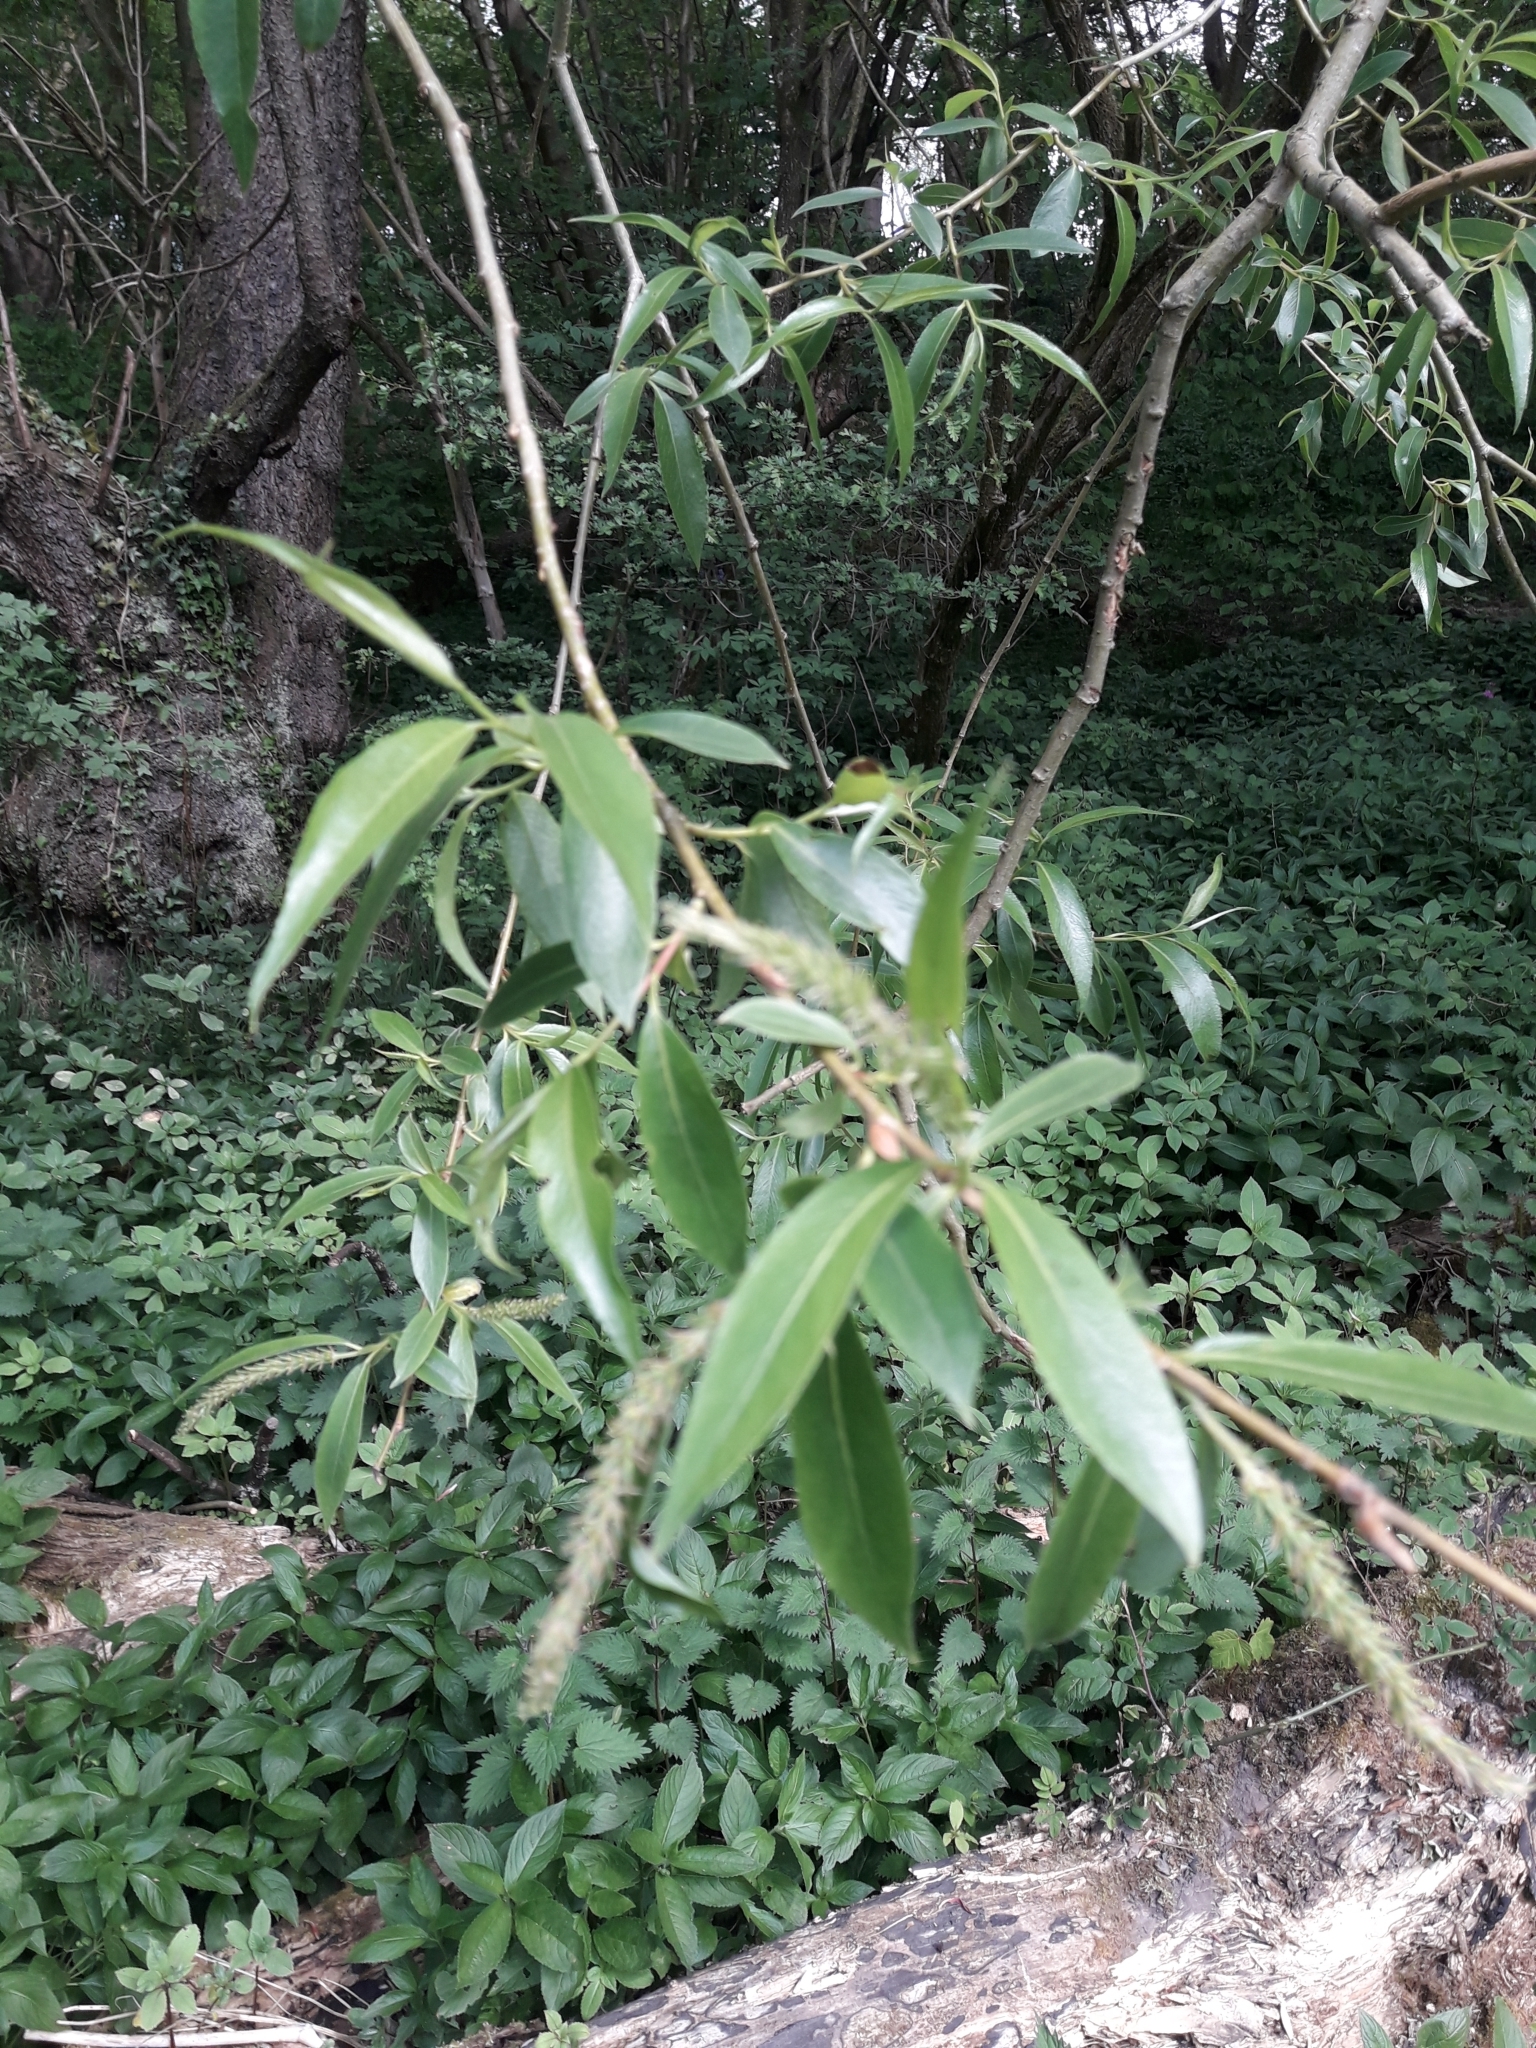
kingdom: Plantae
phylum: Tracheophyta
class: Magnoliopsida
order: Malpighiales
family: Salicaceae
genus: Salix
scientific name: Salix fragilis
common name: Crack willow
